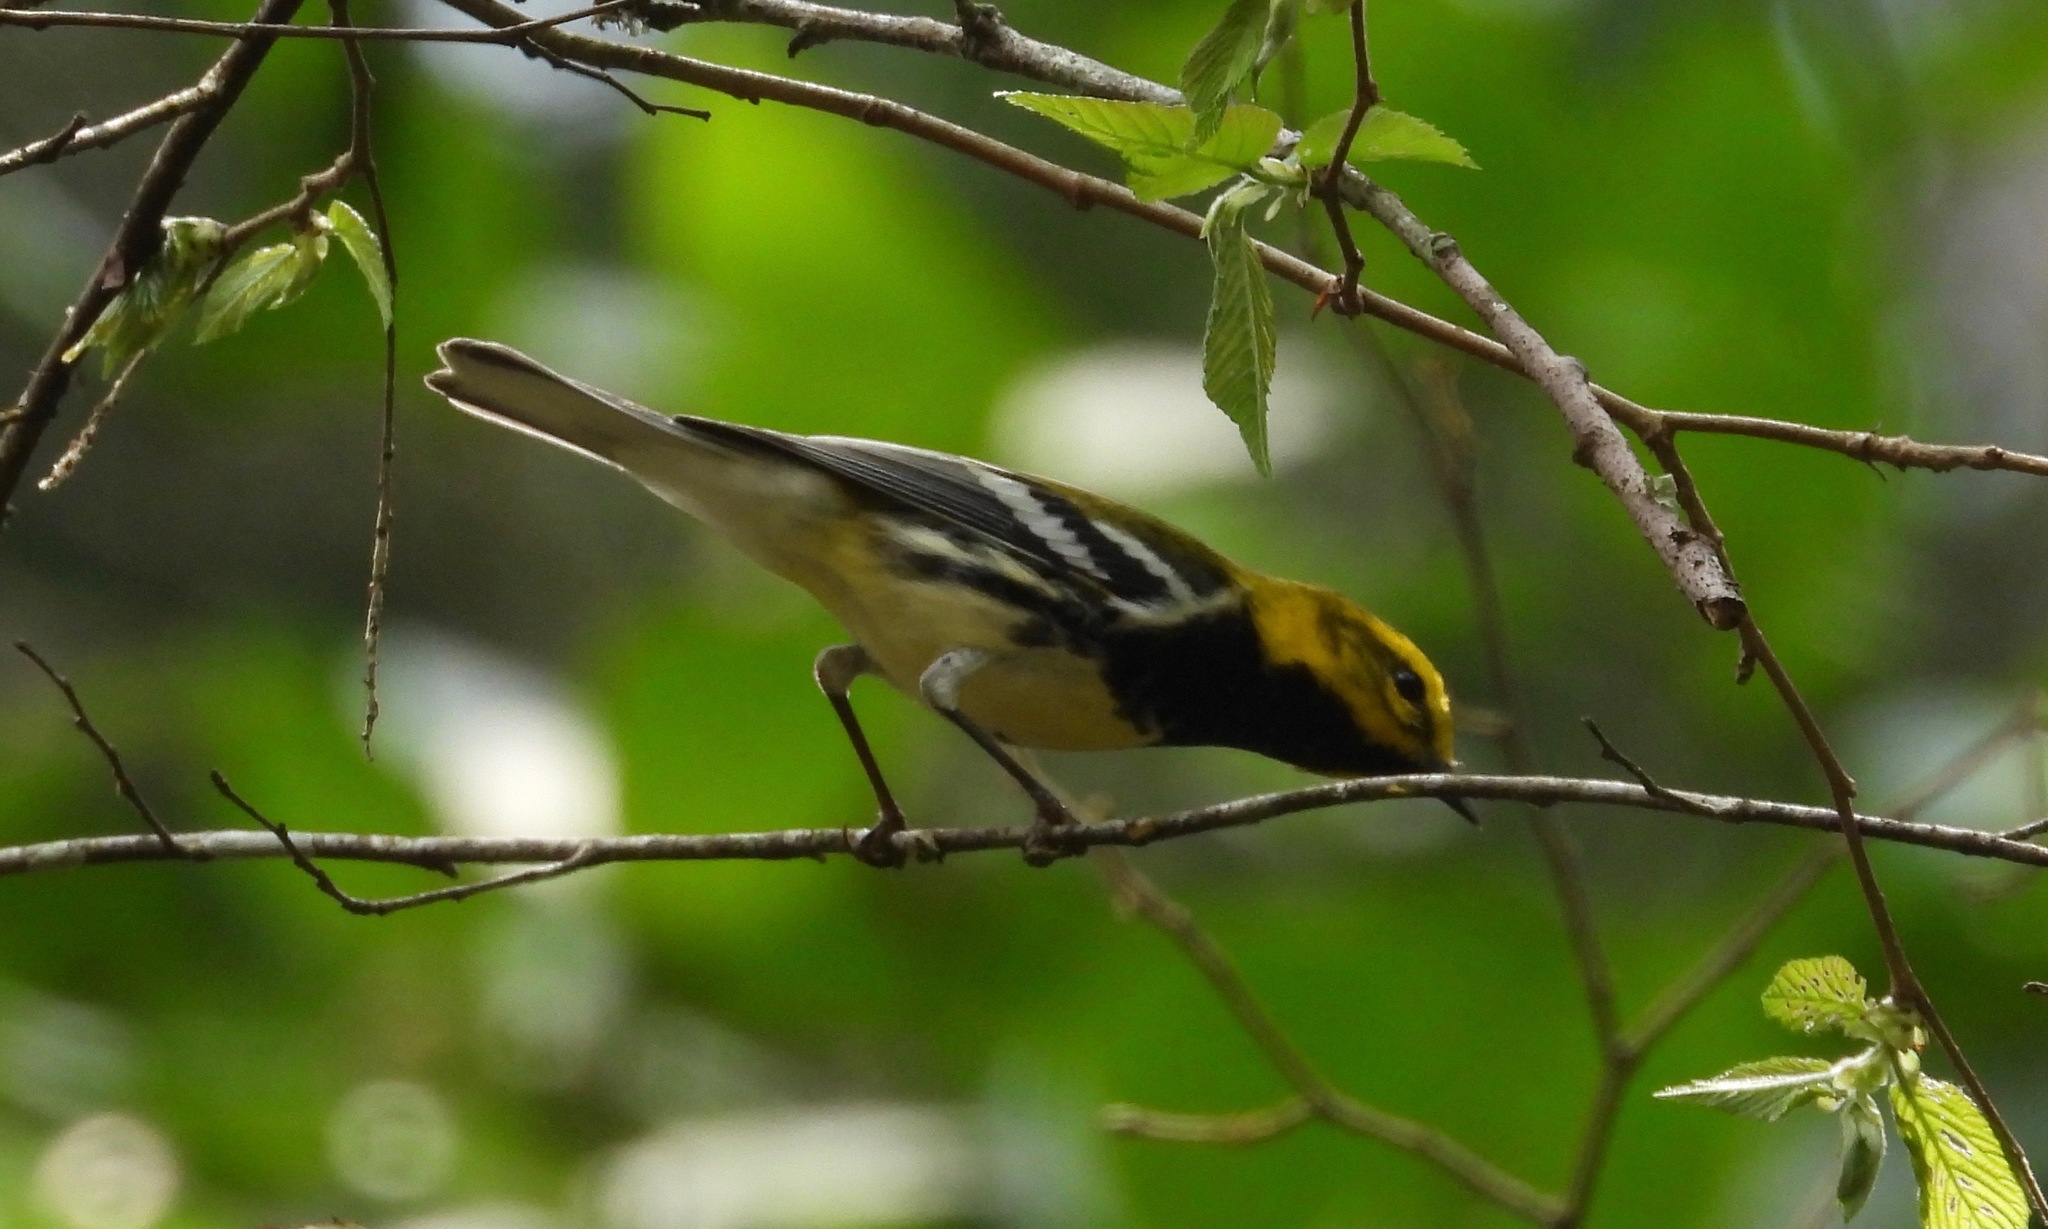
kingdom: Animalia
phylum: Chordata
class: Aves
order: Passeriformes
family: Parulidae
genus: Setophaga
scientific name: Setophaga virens
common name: Black-throated green warbler
